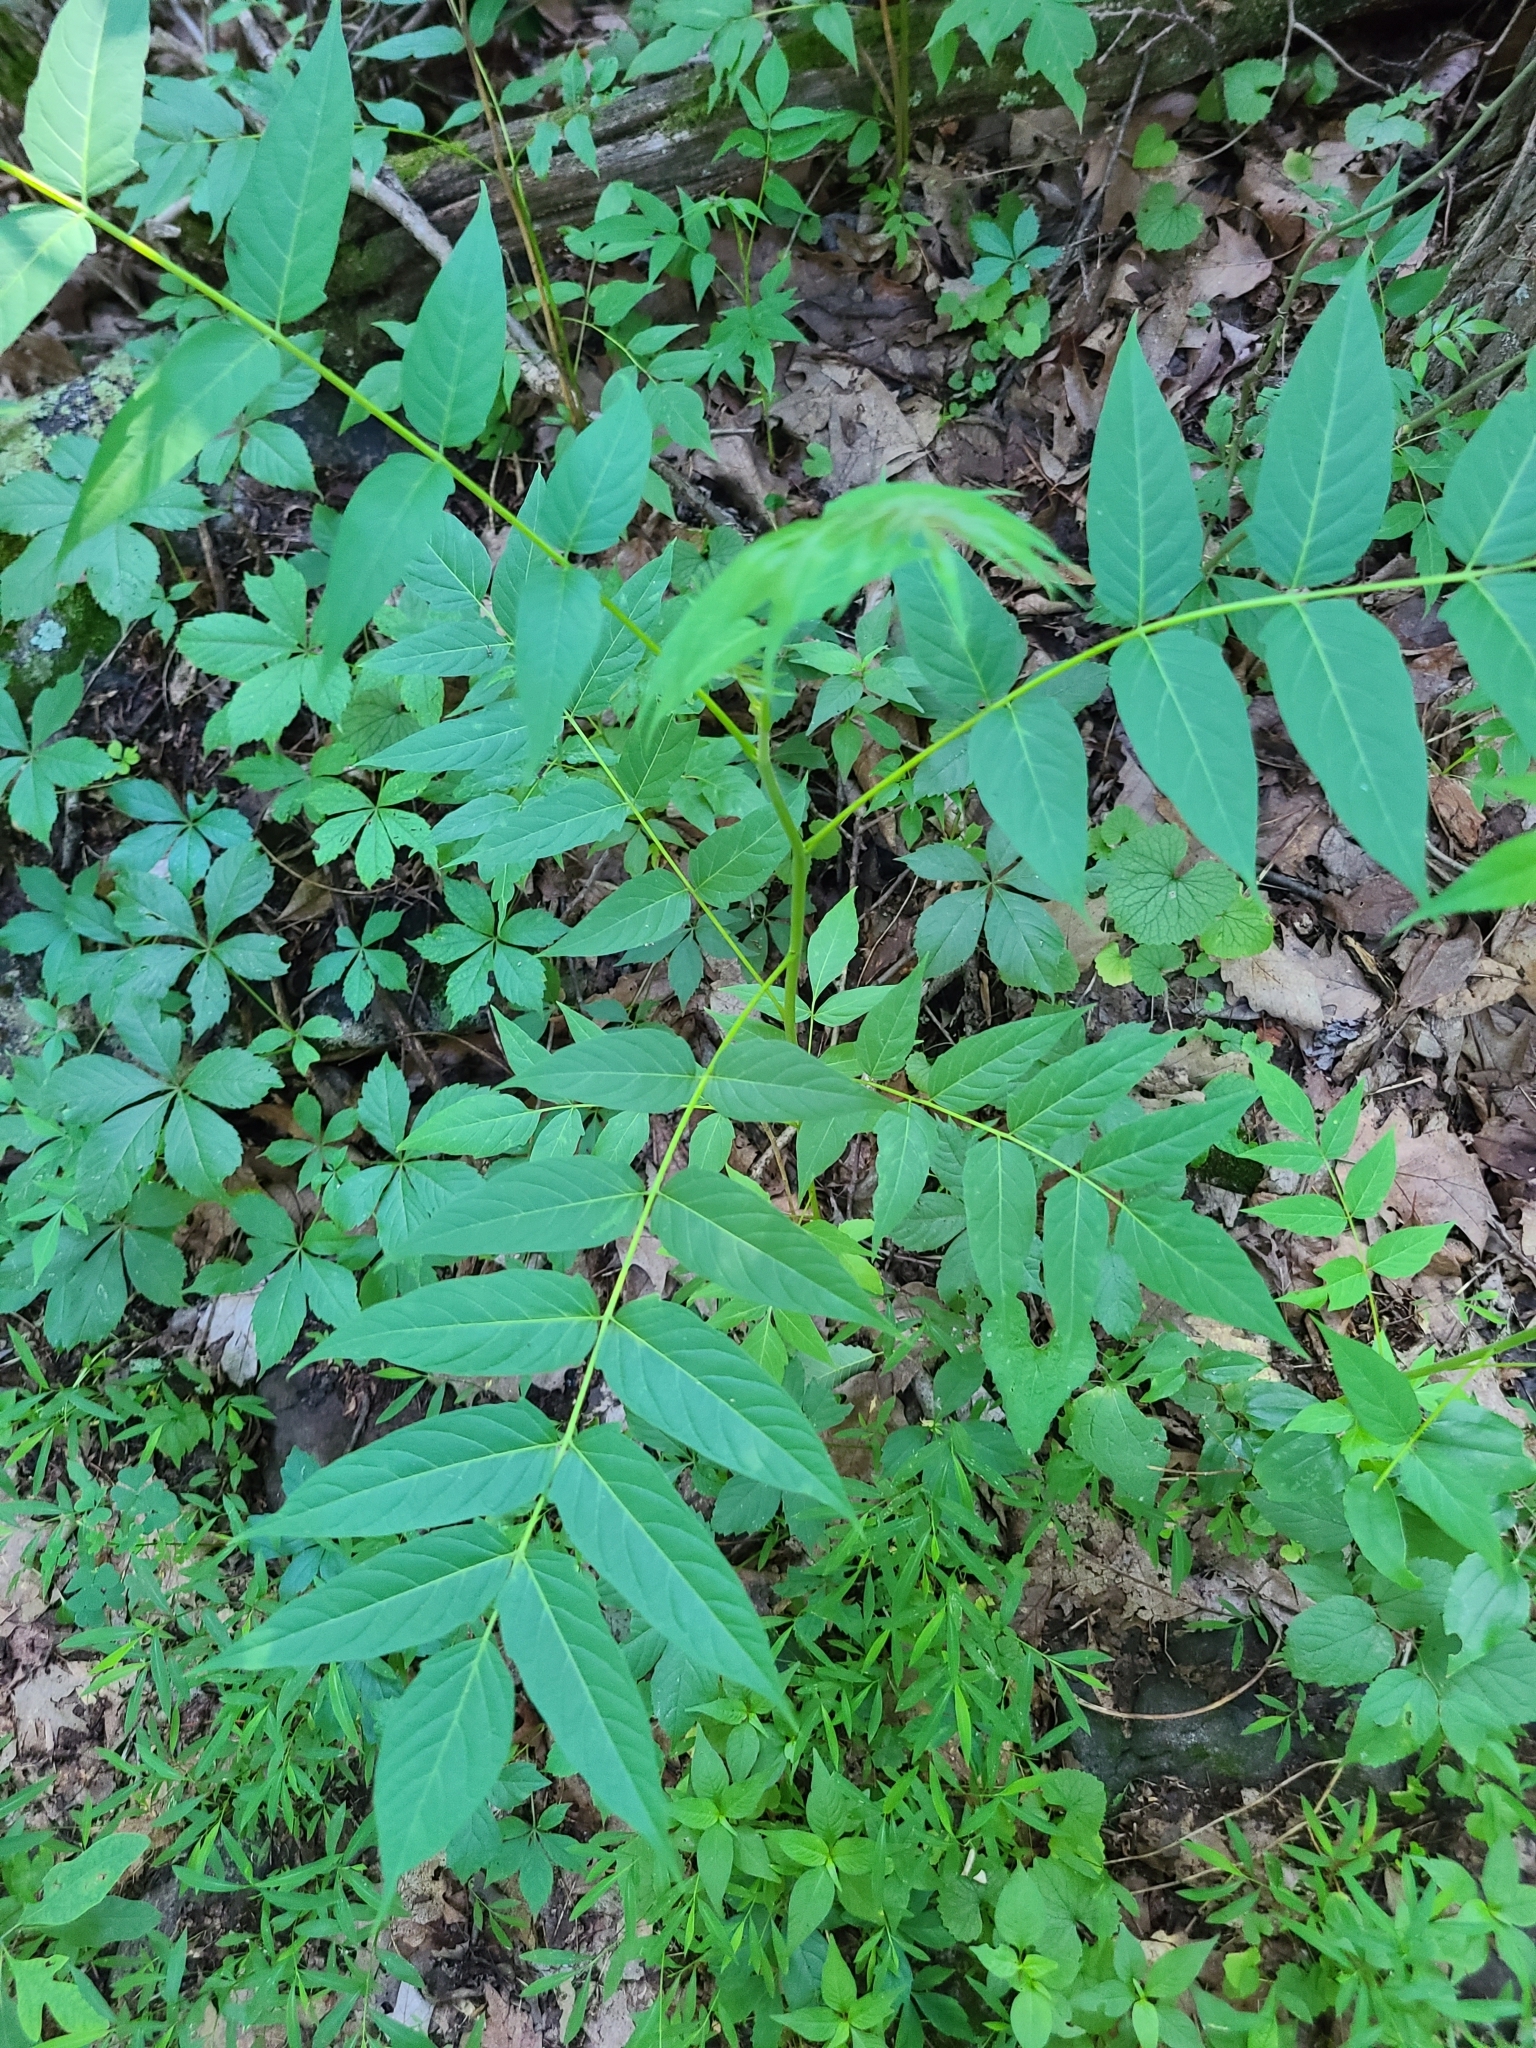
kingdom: Plantae
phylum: Tracheophyta
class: Magnoliopsida
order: Sapindales
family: Simaroubaceae
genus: Ailanthus
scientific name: Ailanthus altissima
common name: Tree-of-heaven
